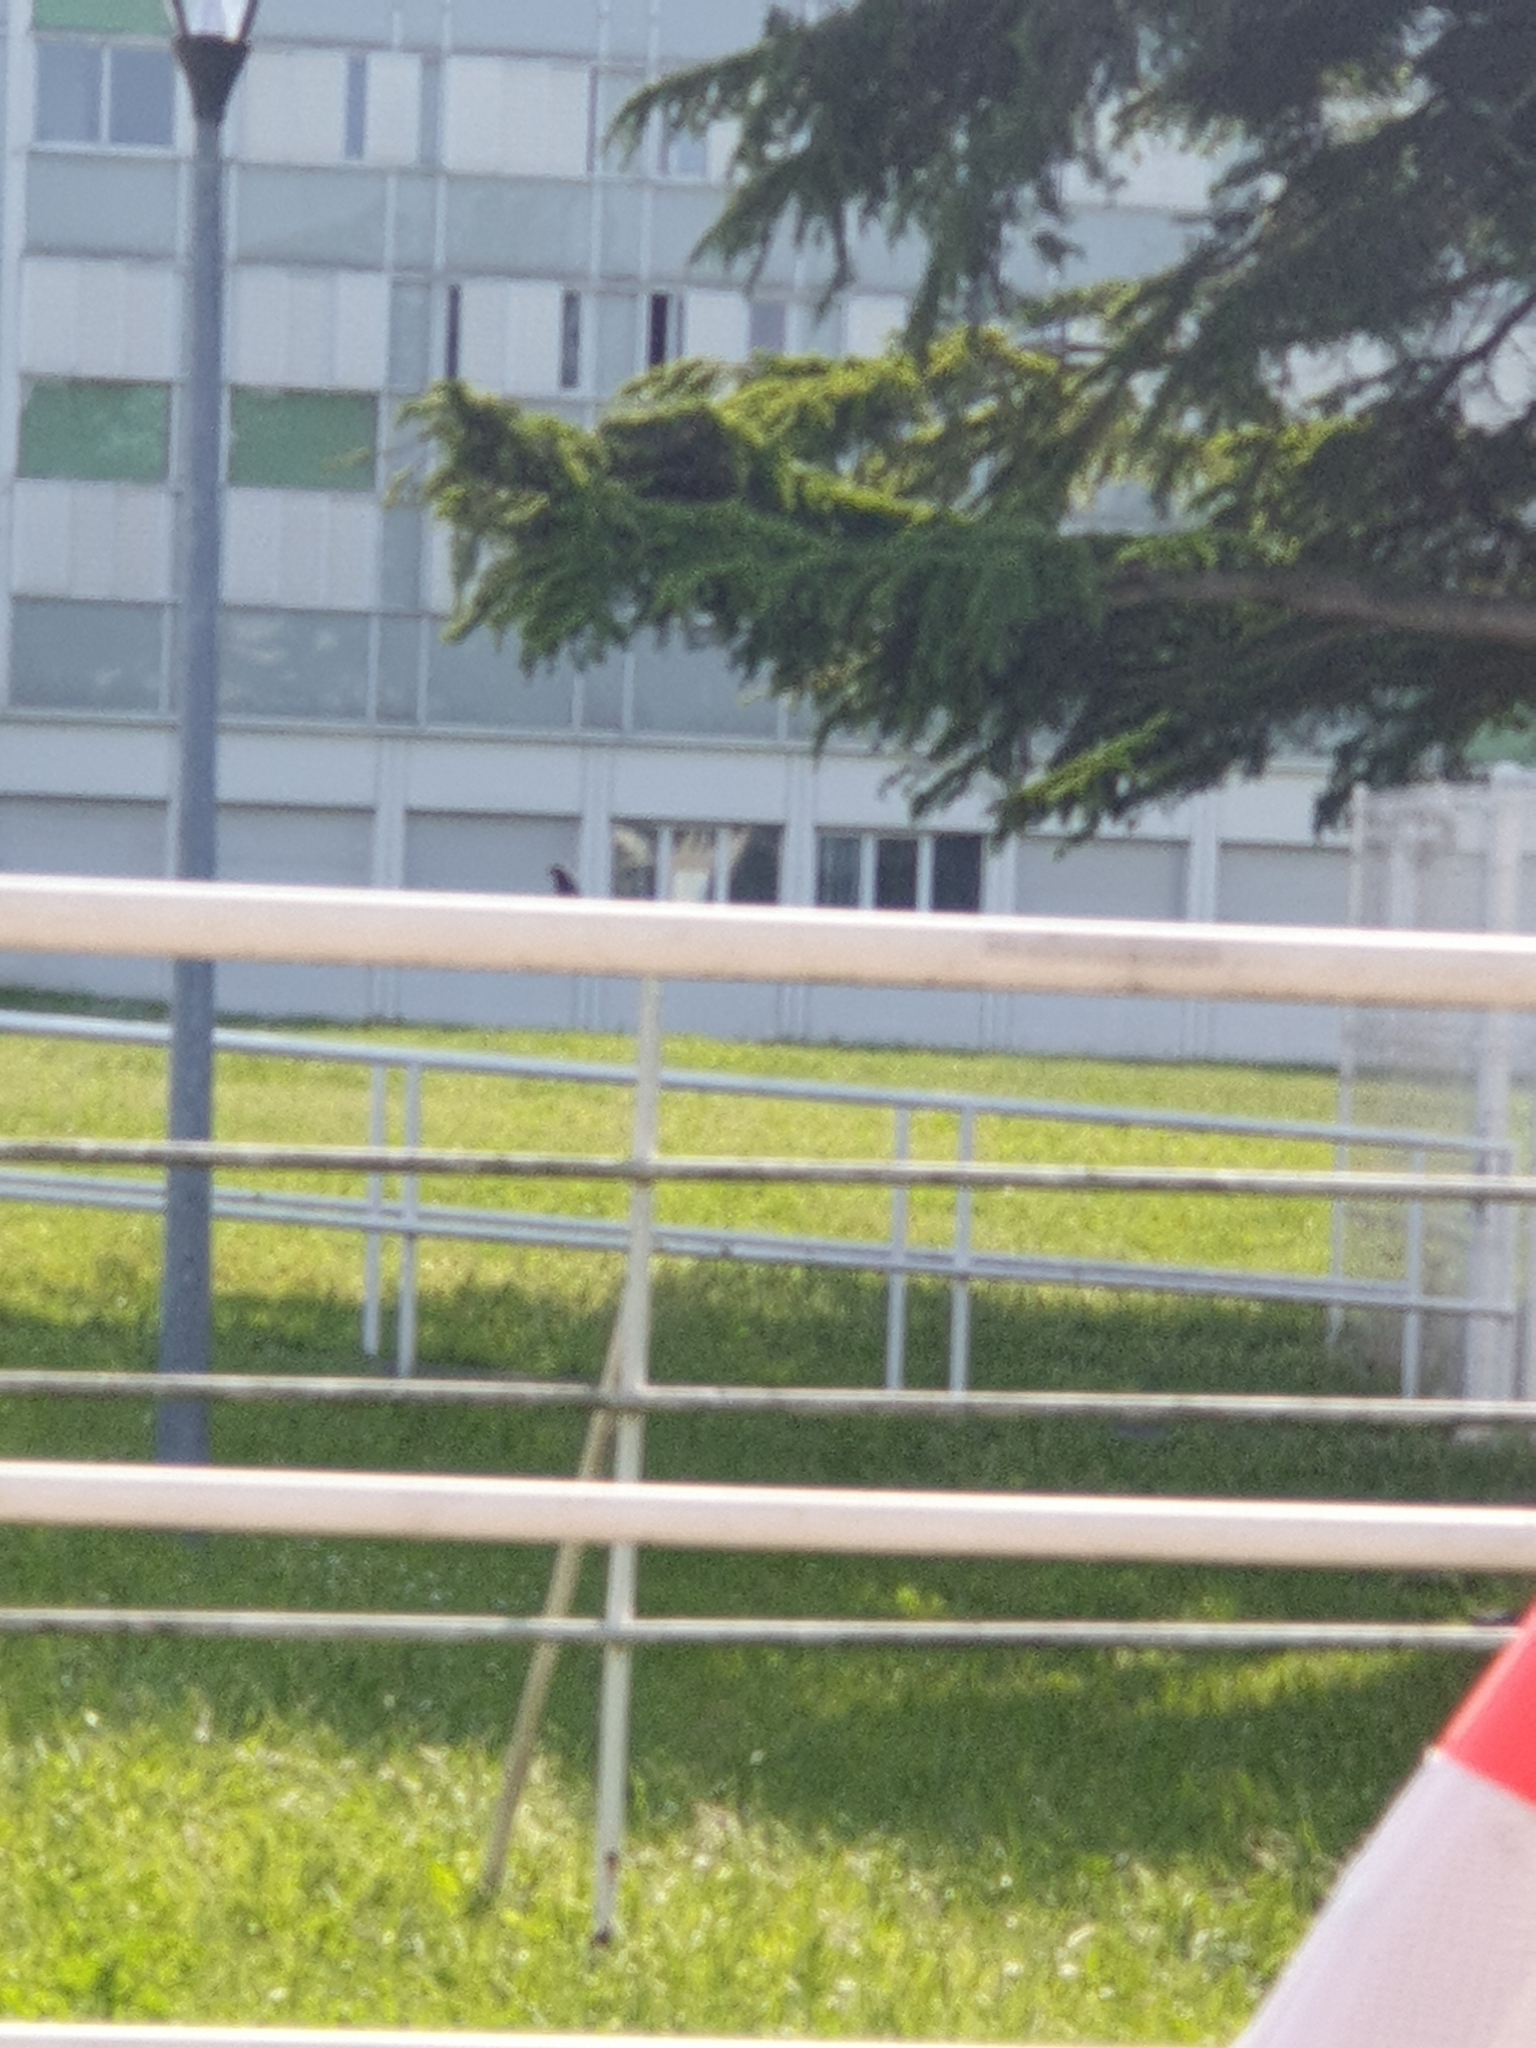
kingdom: Animalia
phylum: Chordata
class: Aves
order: Passeriformes
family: Muscicapidae
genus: Phoenicurus
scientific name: Phoenicurus ochruros
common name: Black redstart
